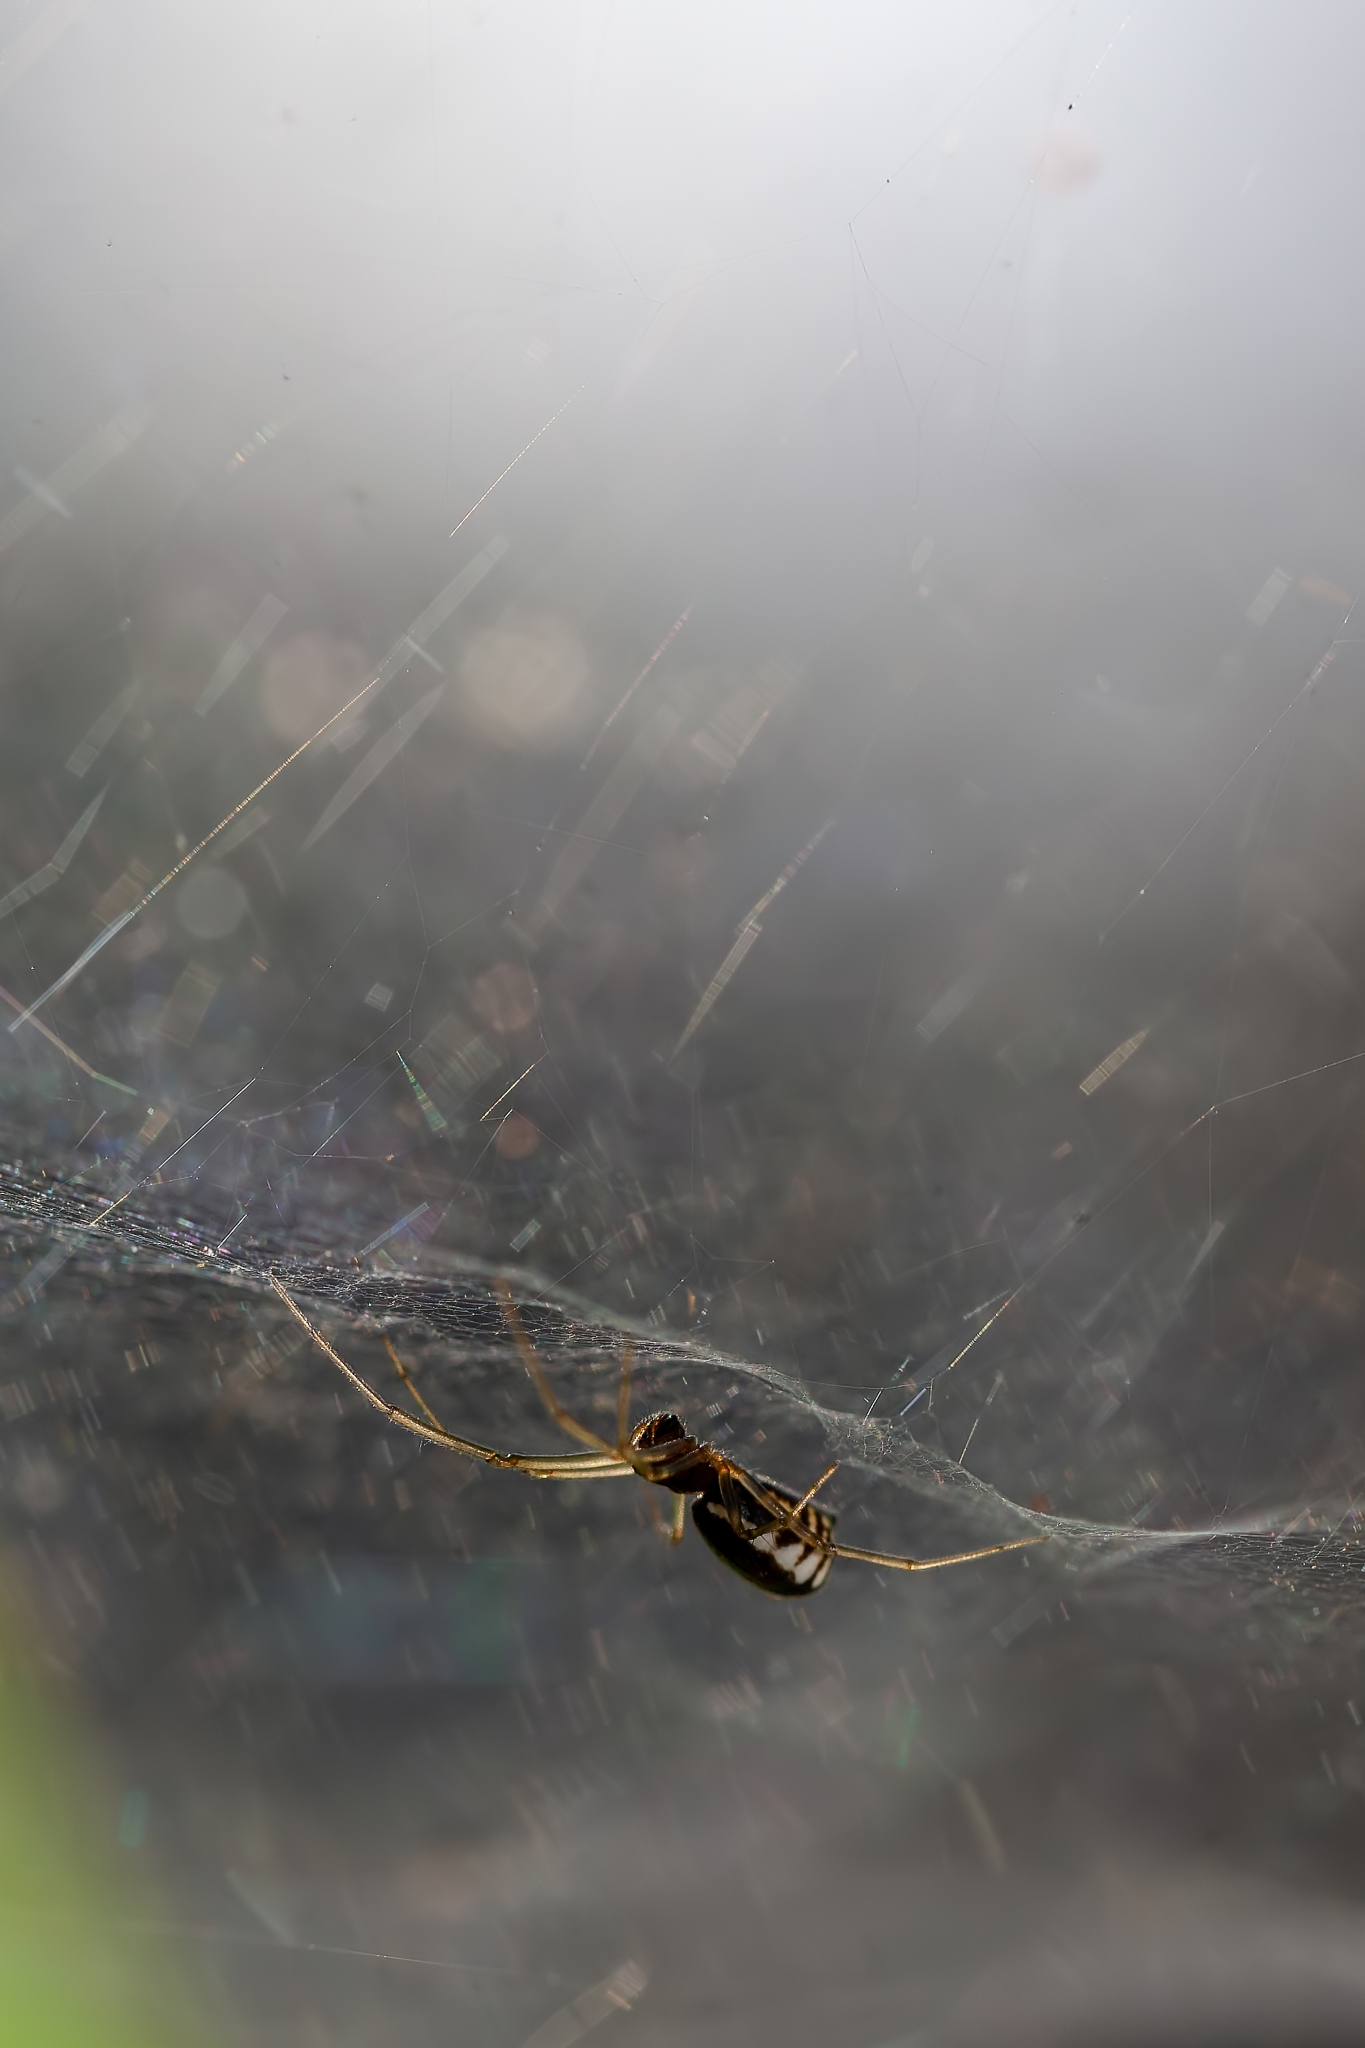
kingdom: Animalia
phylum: Arthropoda
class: Arachnida
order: Araneae
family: Linyphiidae
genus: Frontinella
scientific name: Frontinella pyramitela
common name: Bowl-and-doily spider
